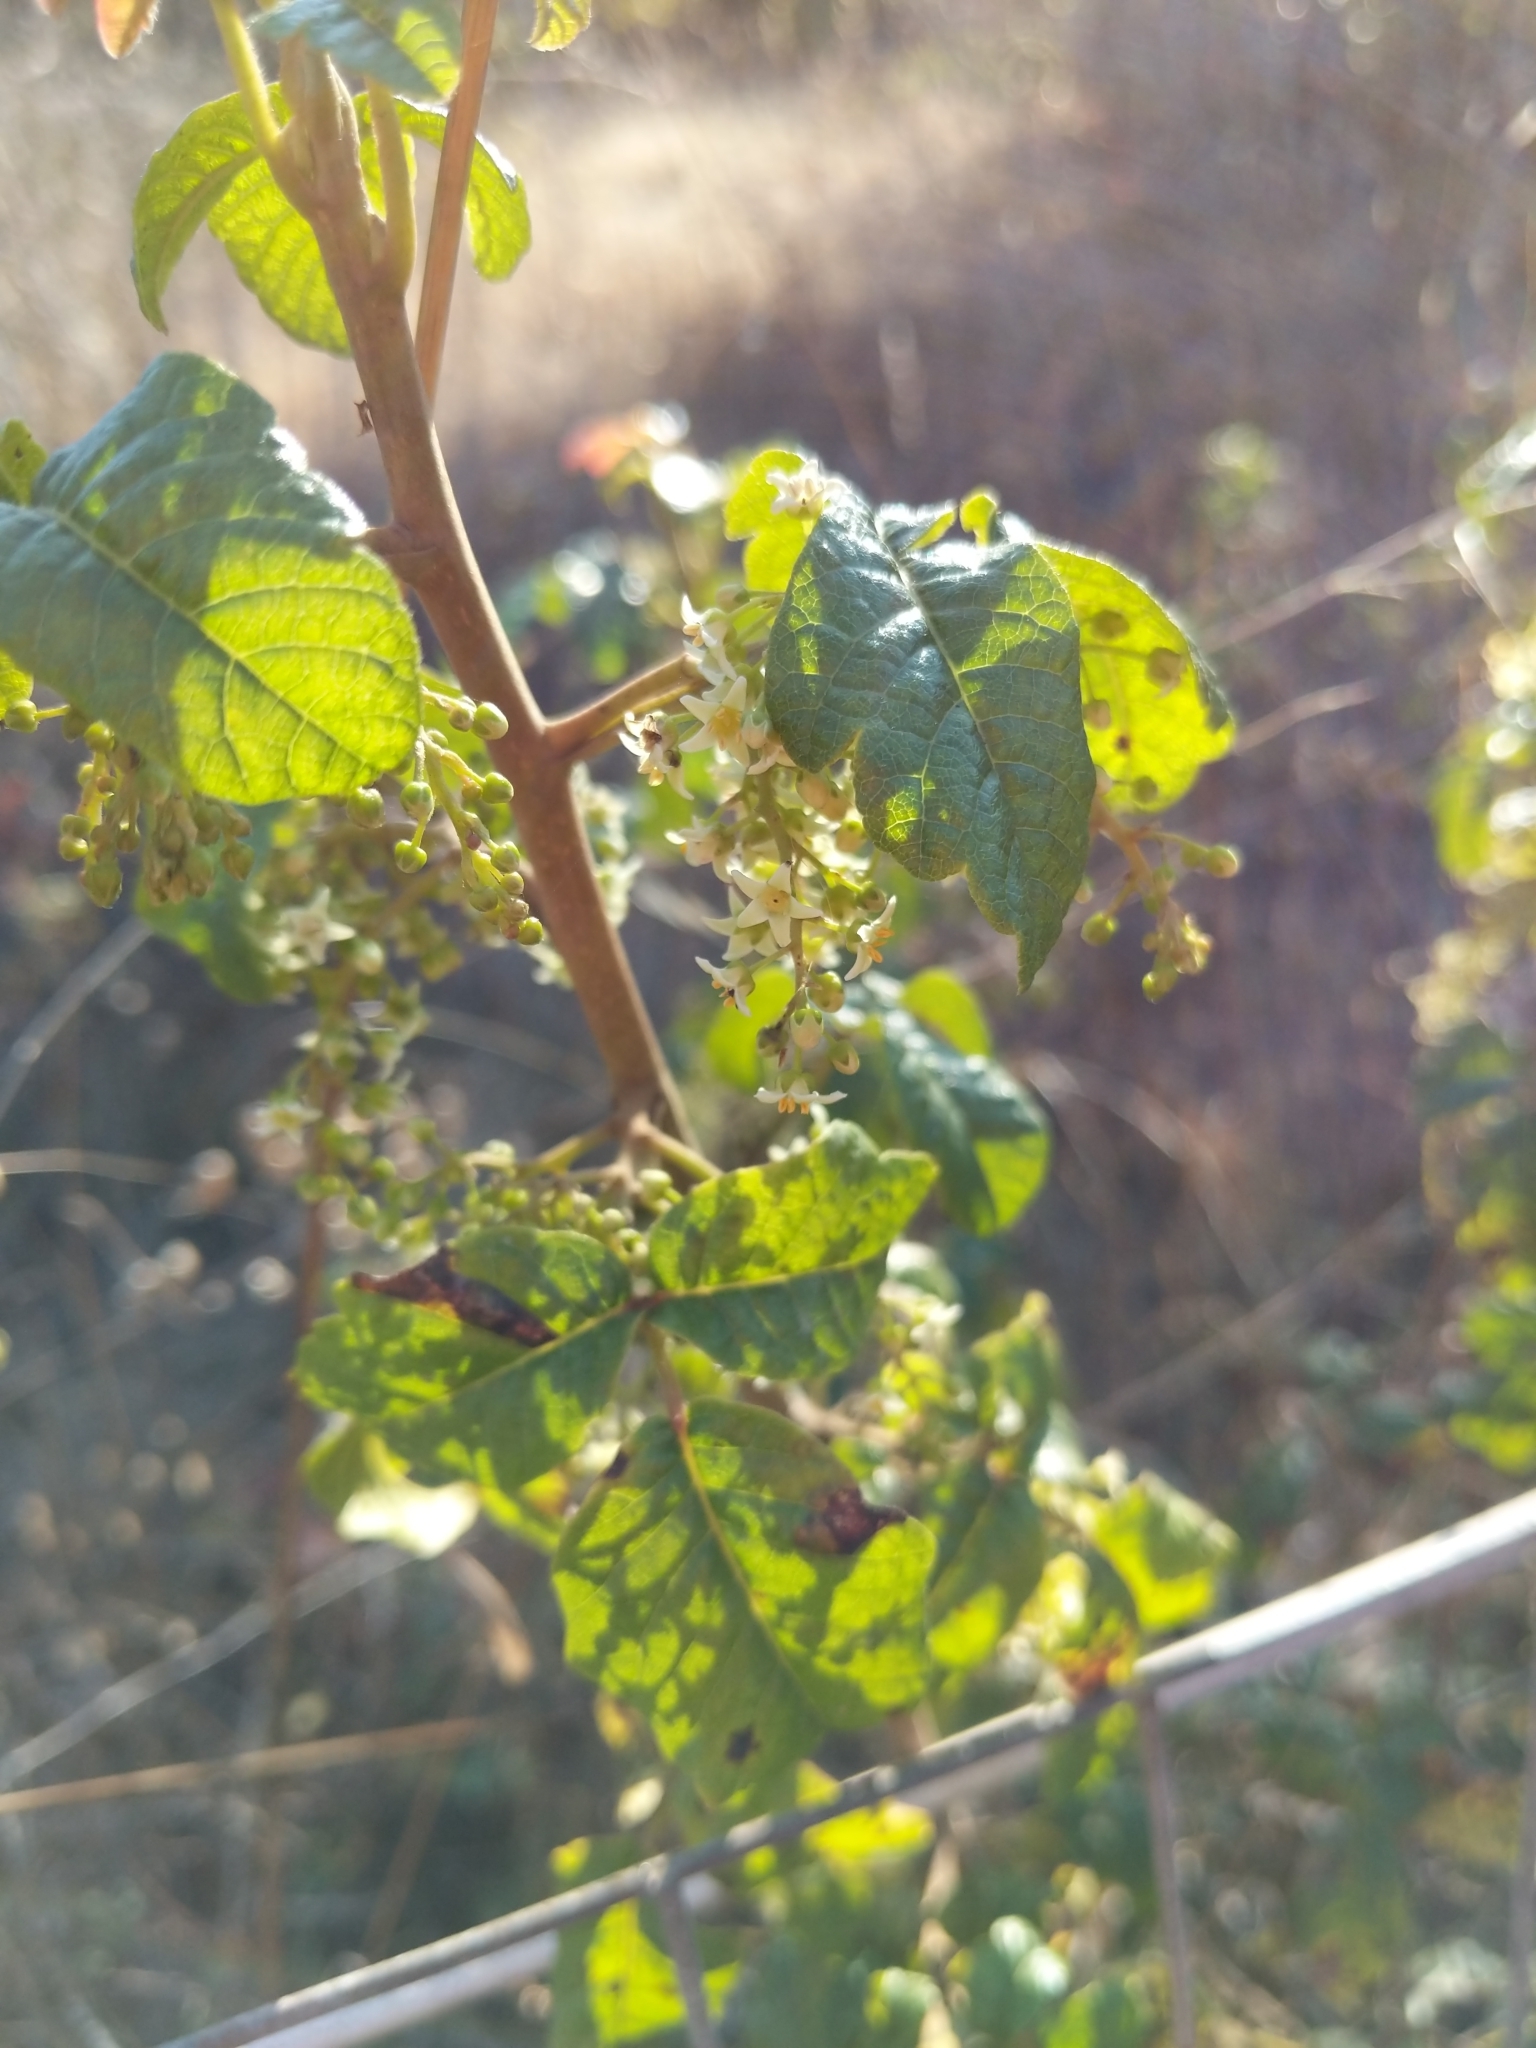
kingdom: Plantae
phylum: Tracheophyta
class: Magnoliopsida
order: Sapindales
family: Anacardiaceae
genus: Toxicodendron
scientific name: Toxicodendron diversilobum
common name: Pacific poison-oak
